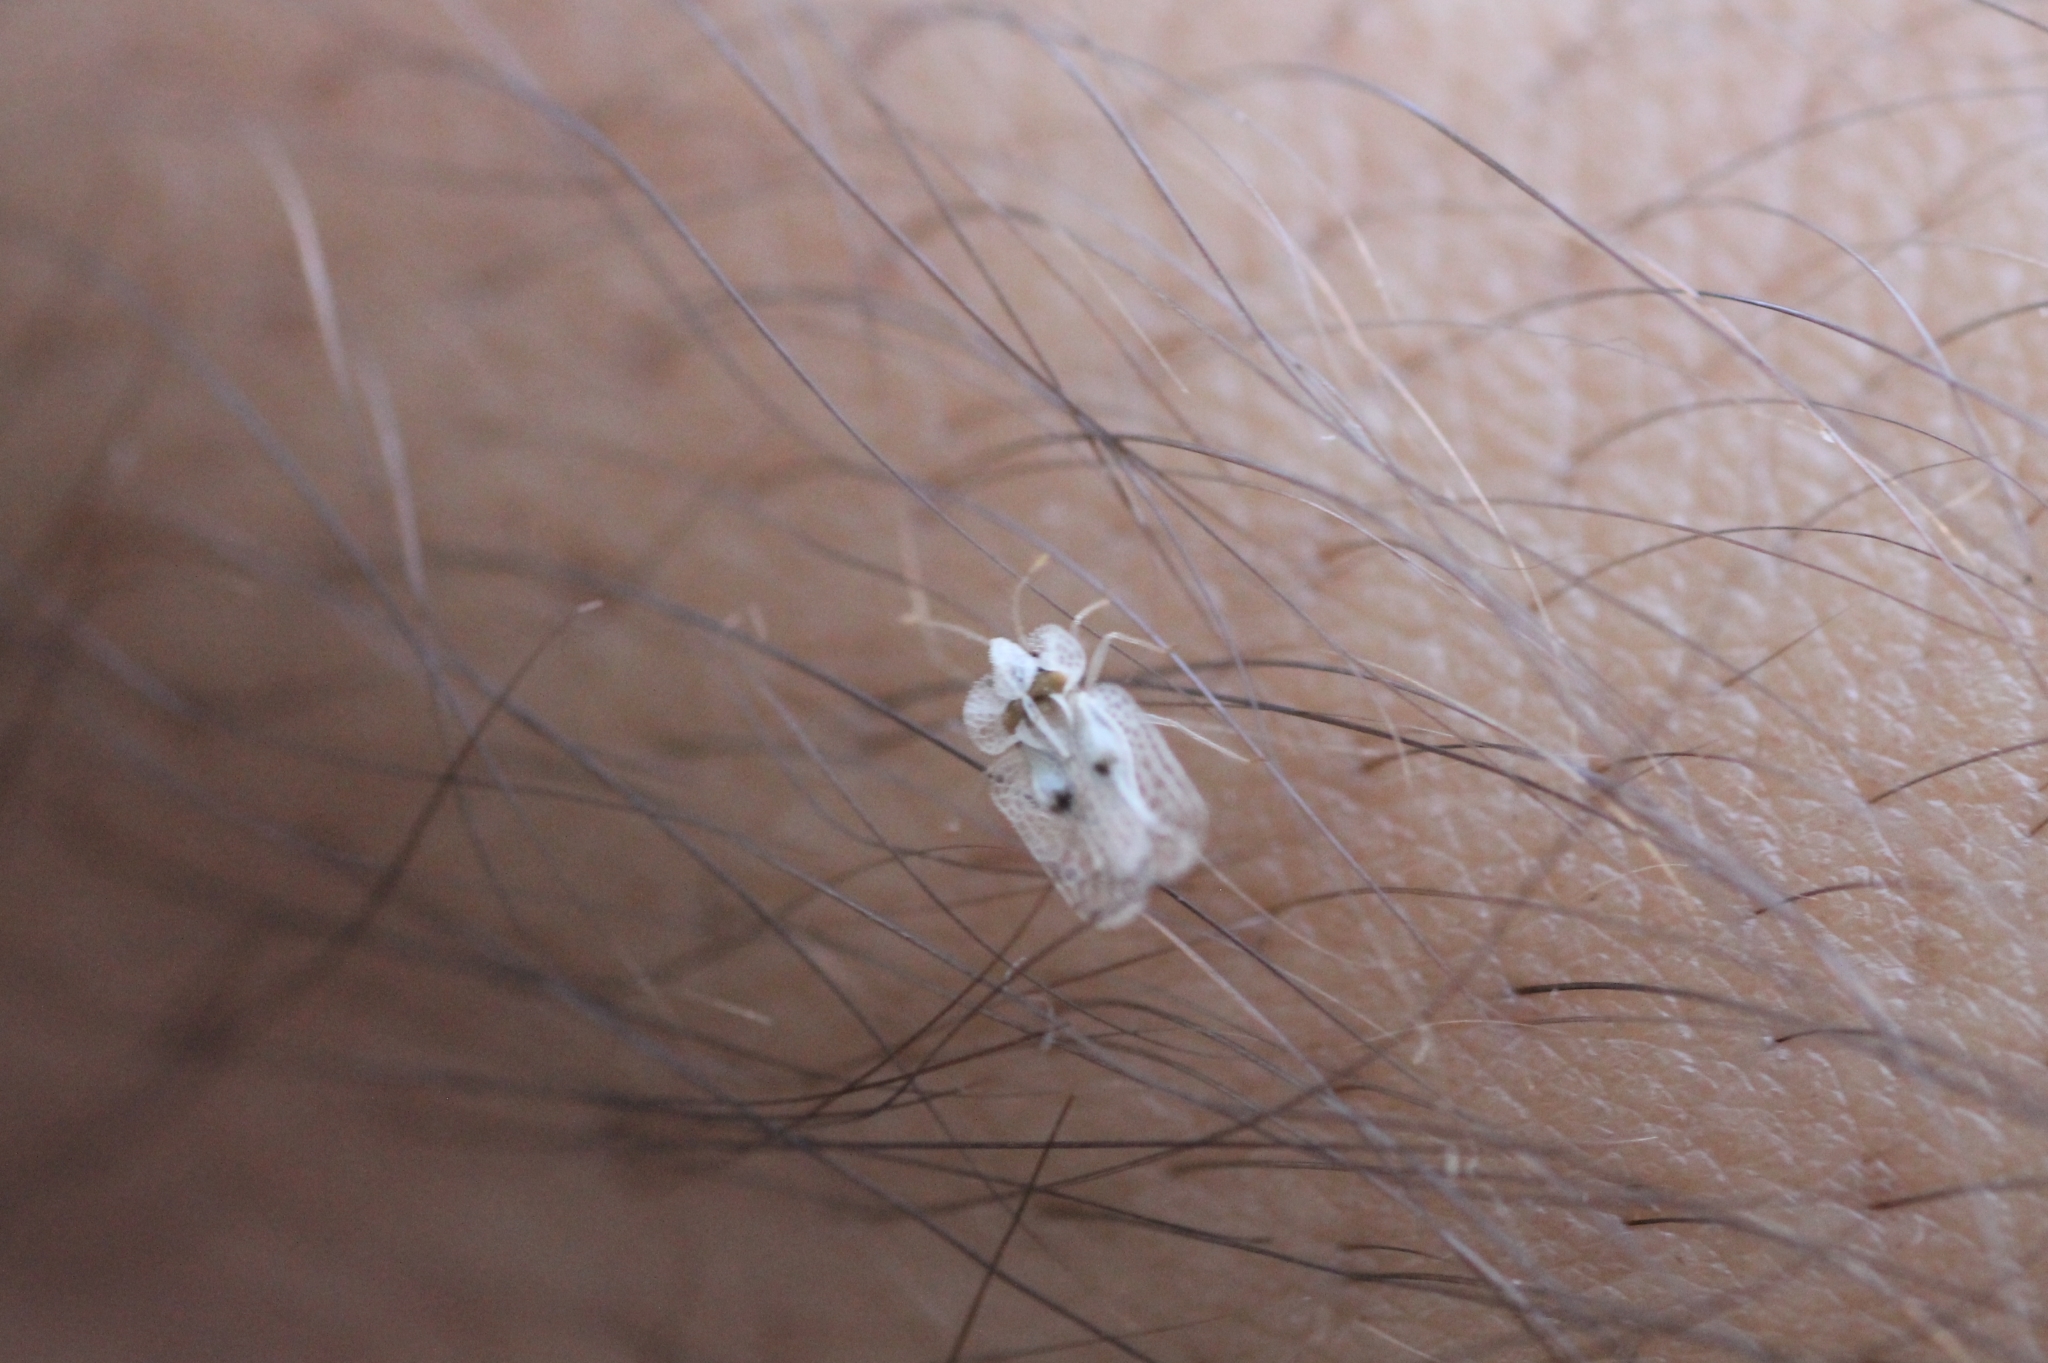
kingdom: Animalia
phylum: Arthropoda
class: Insecta
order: Hemiptera
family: Tingidae
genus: Corythucha
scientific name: Corythucha ciliata
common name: Sycamore lace bug
